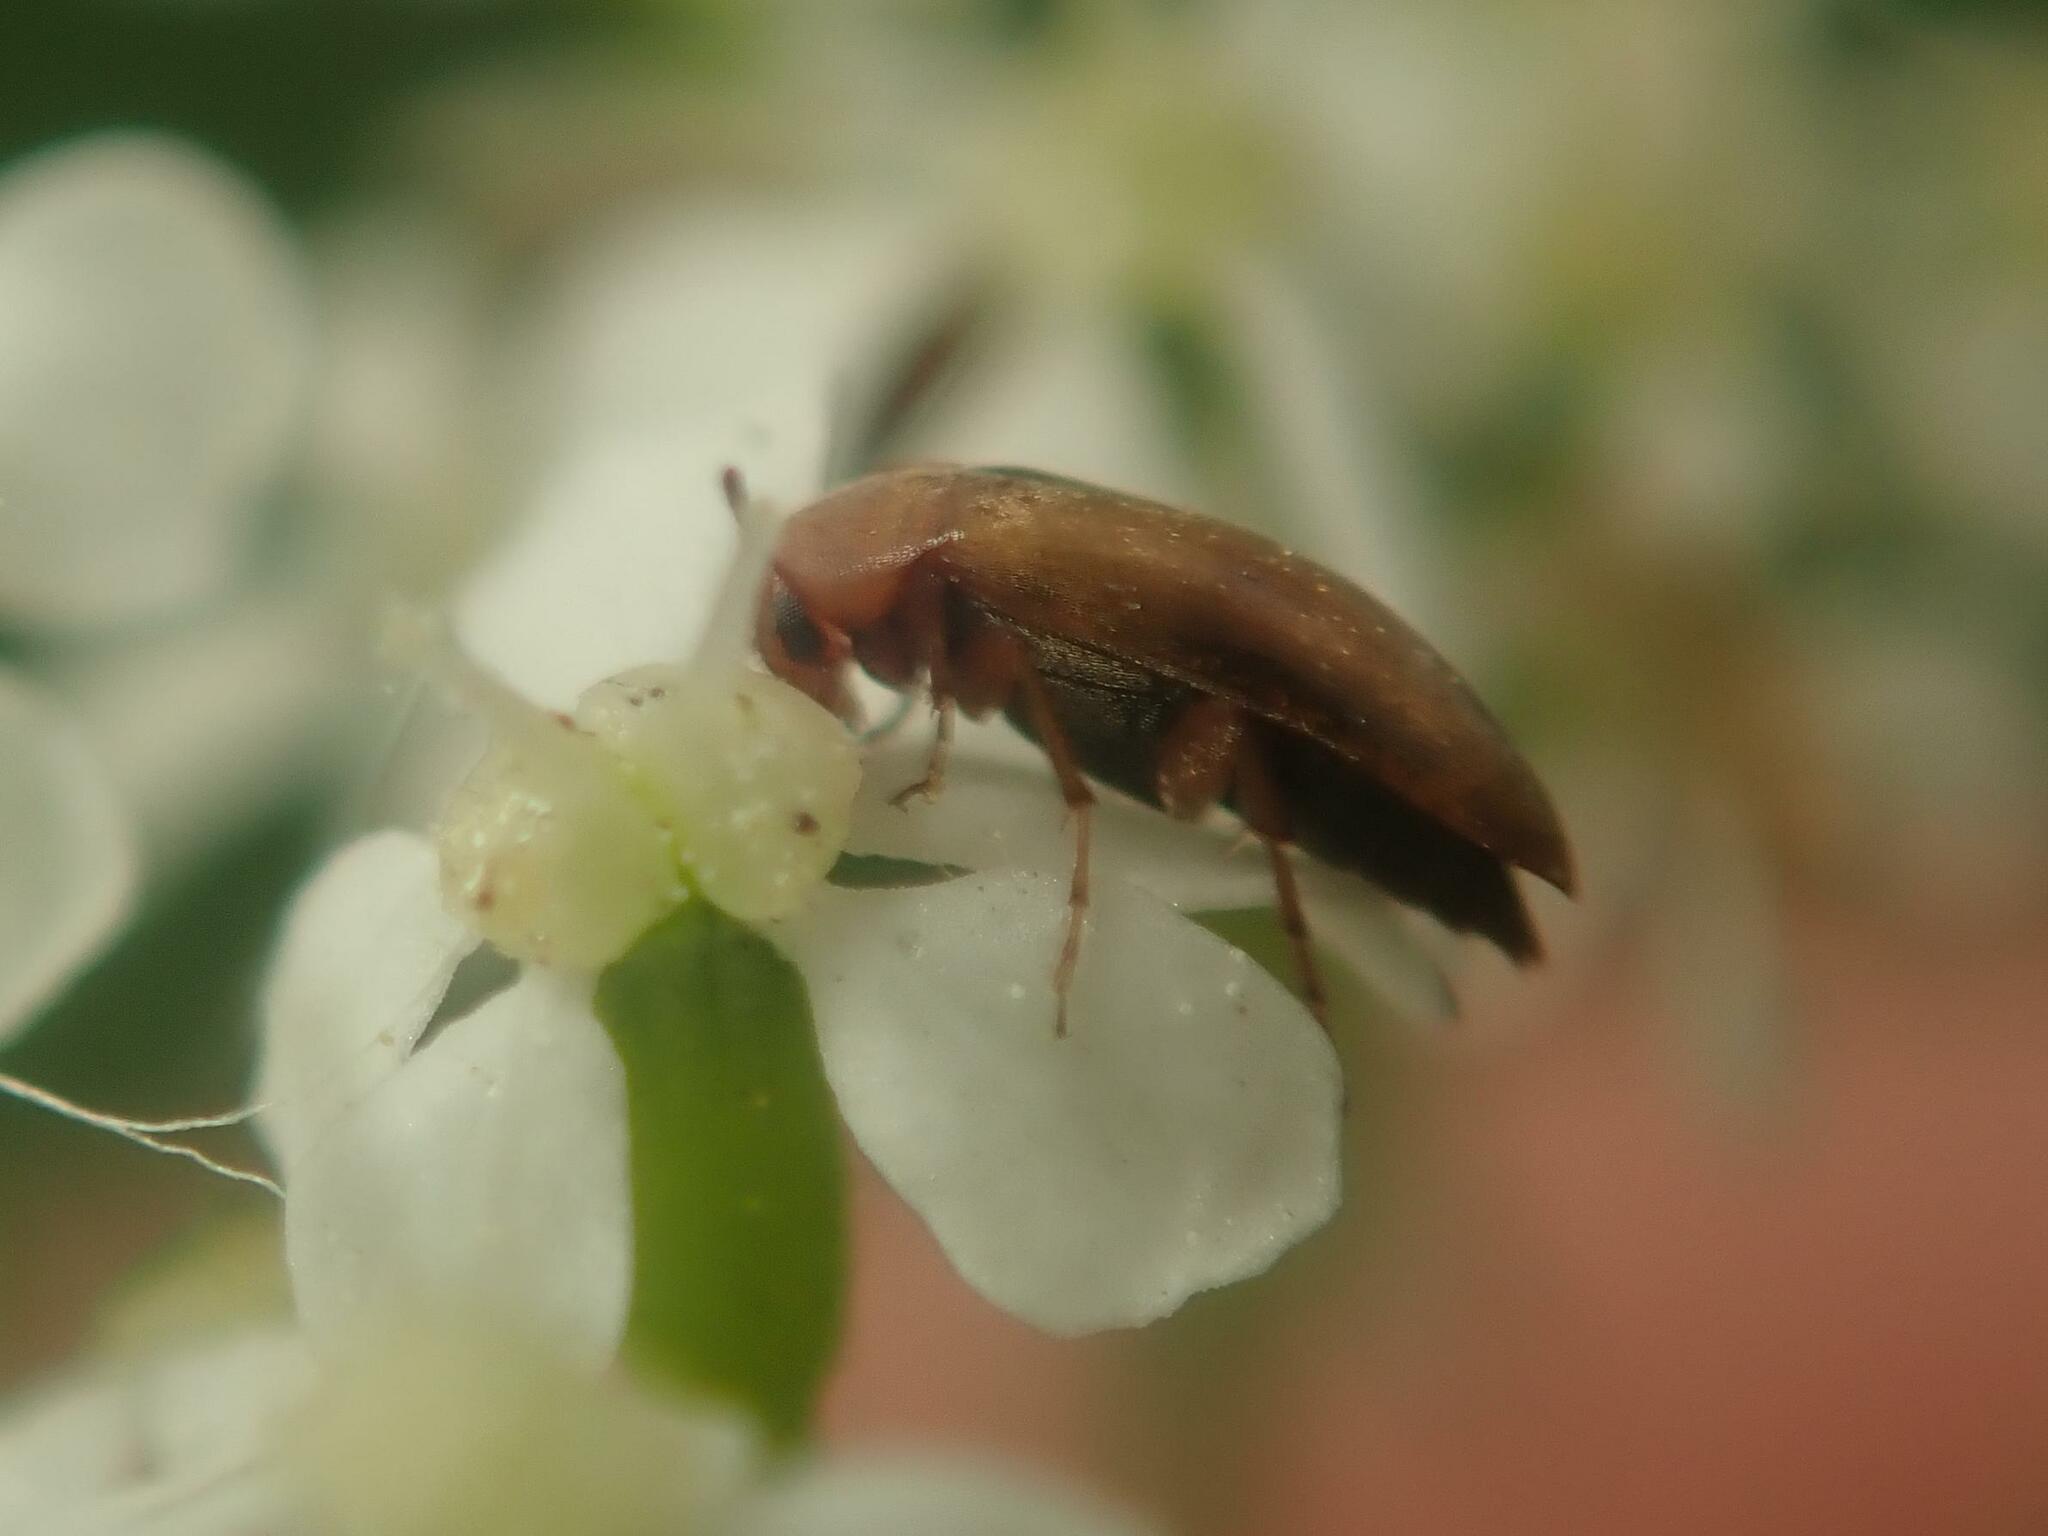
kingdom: Animalia
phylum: Arthropoda
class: Insecta
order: Coleoptera
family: Scraptiidae
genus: Anaspis
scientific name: Anaspis maculata
